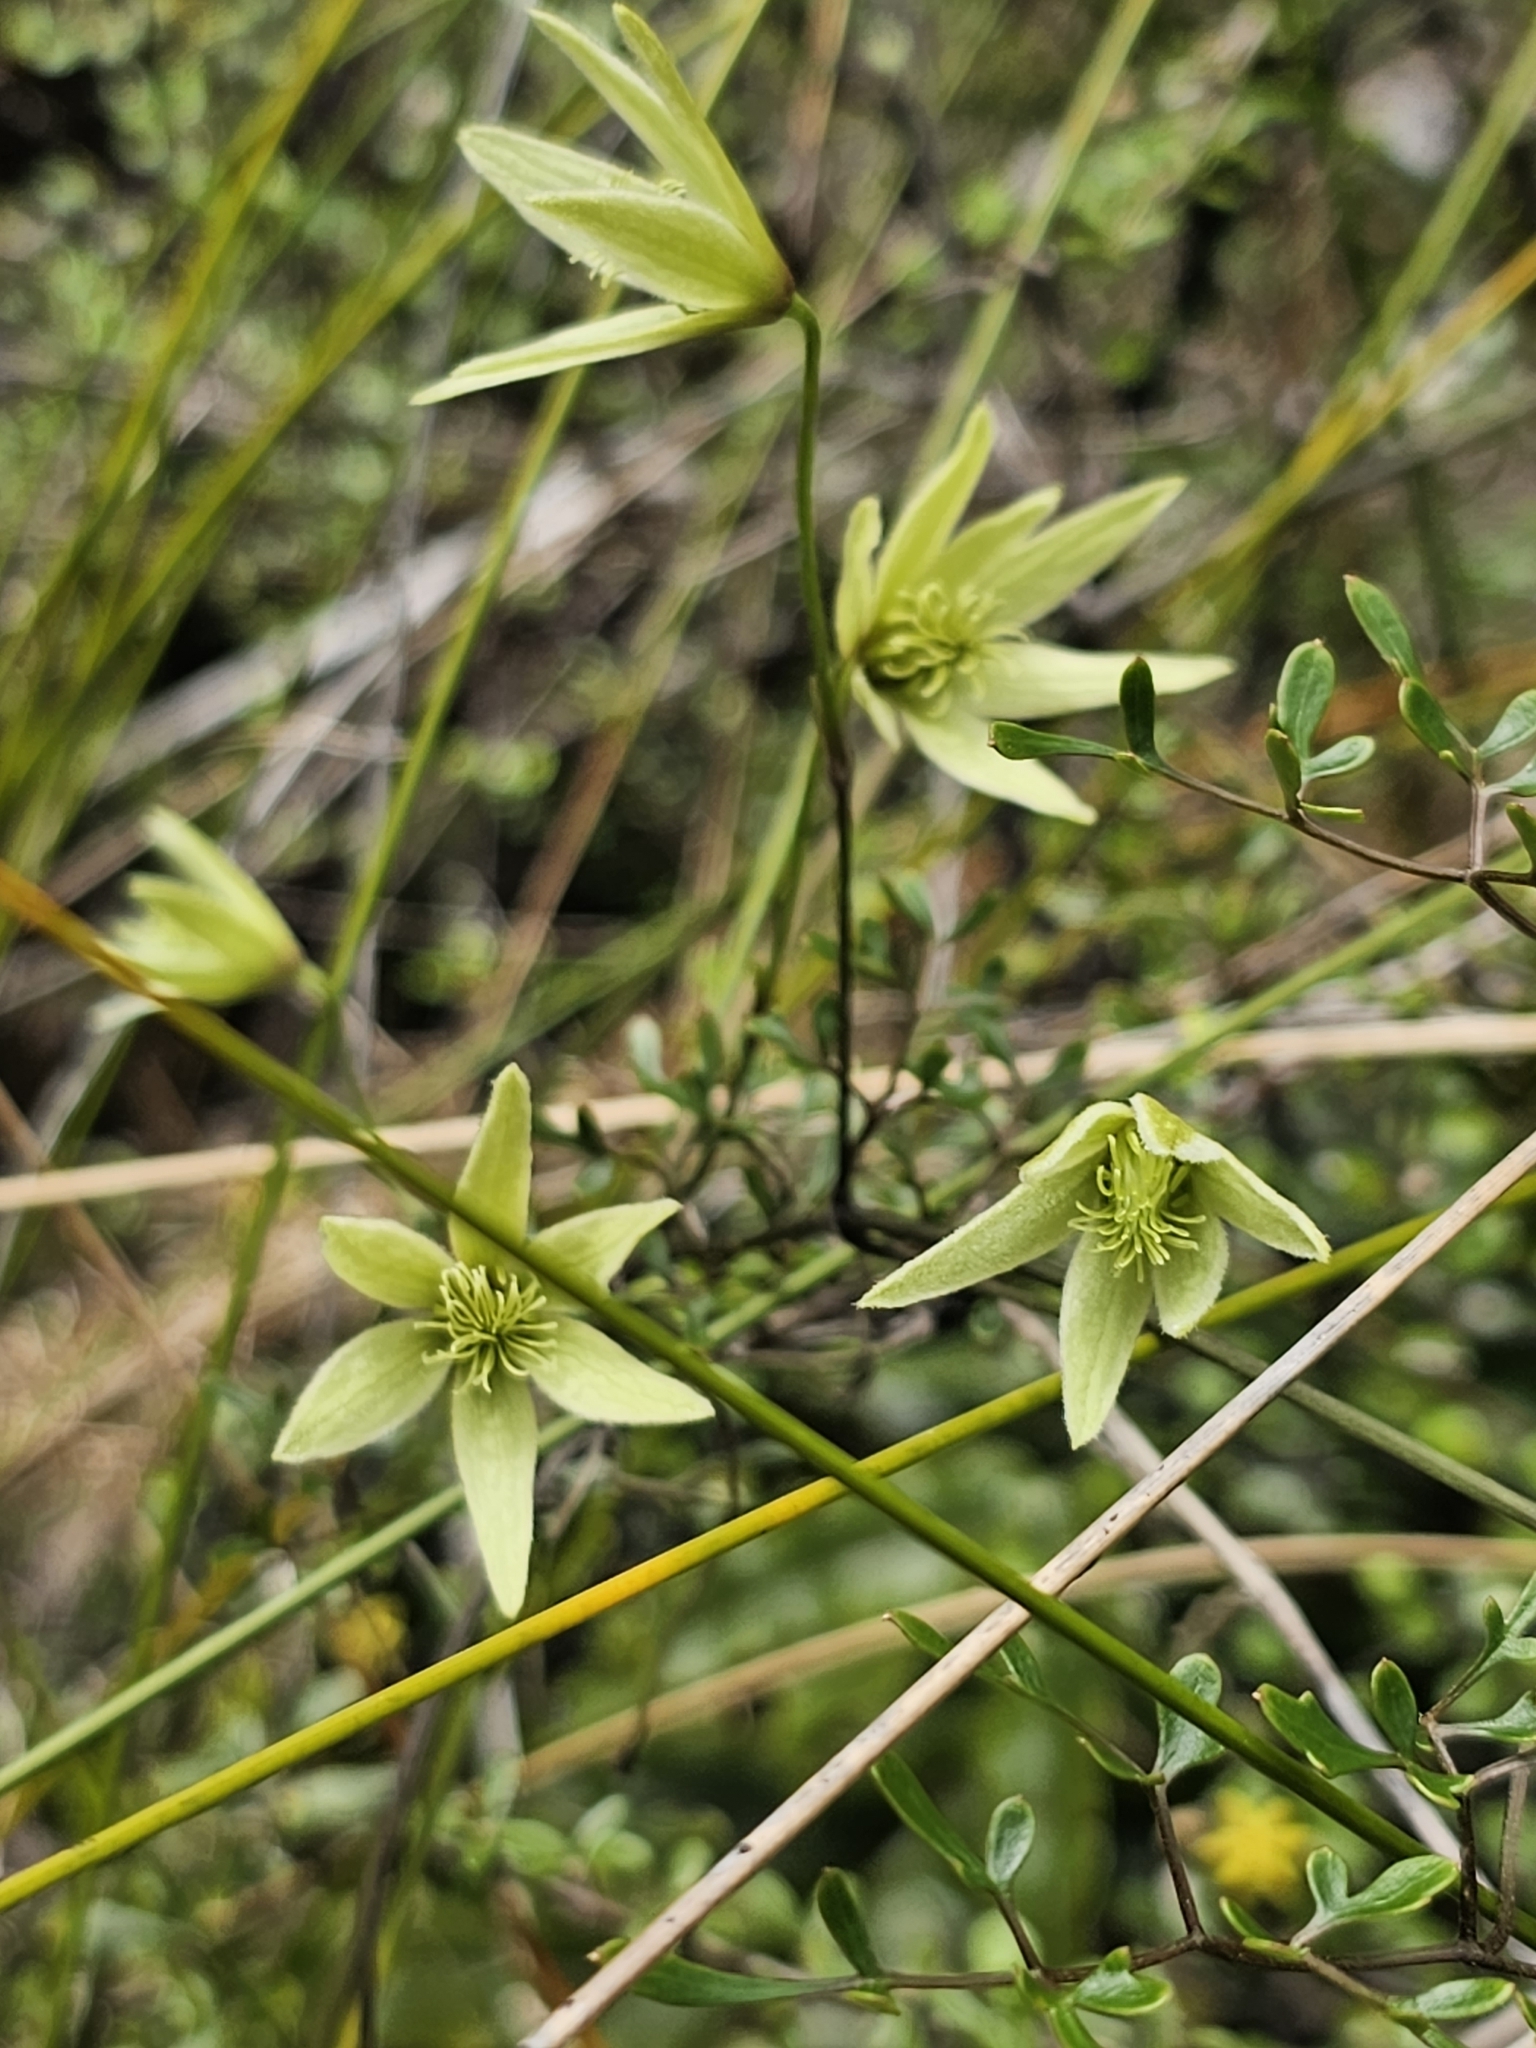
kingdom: Plantae
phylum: Tracheophyta
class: Magnoliopsida
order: Ranunculales
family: Ranunculaceae
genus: Clematis
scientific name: Clematis forsteri
